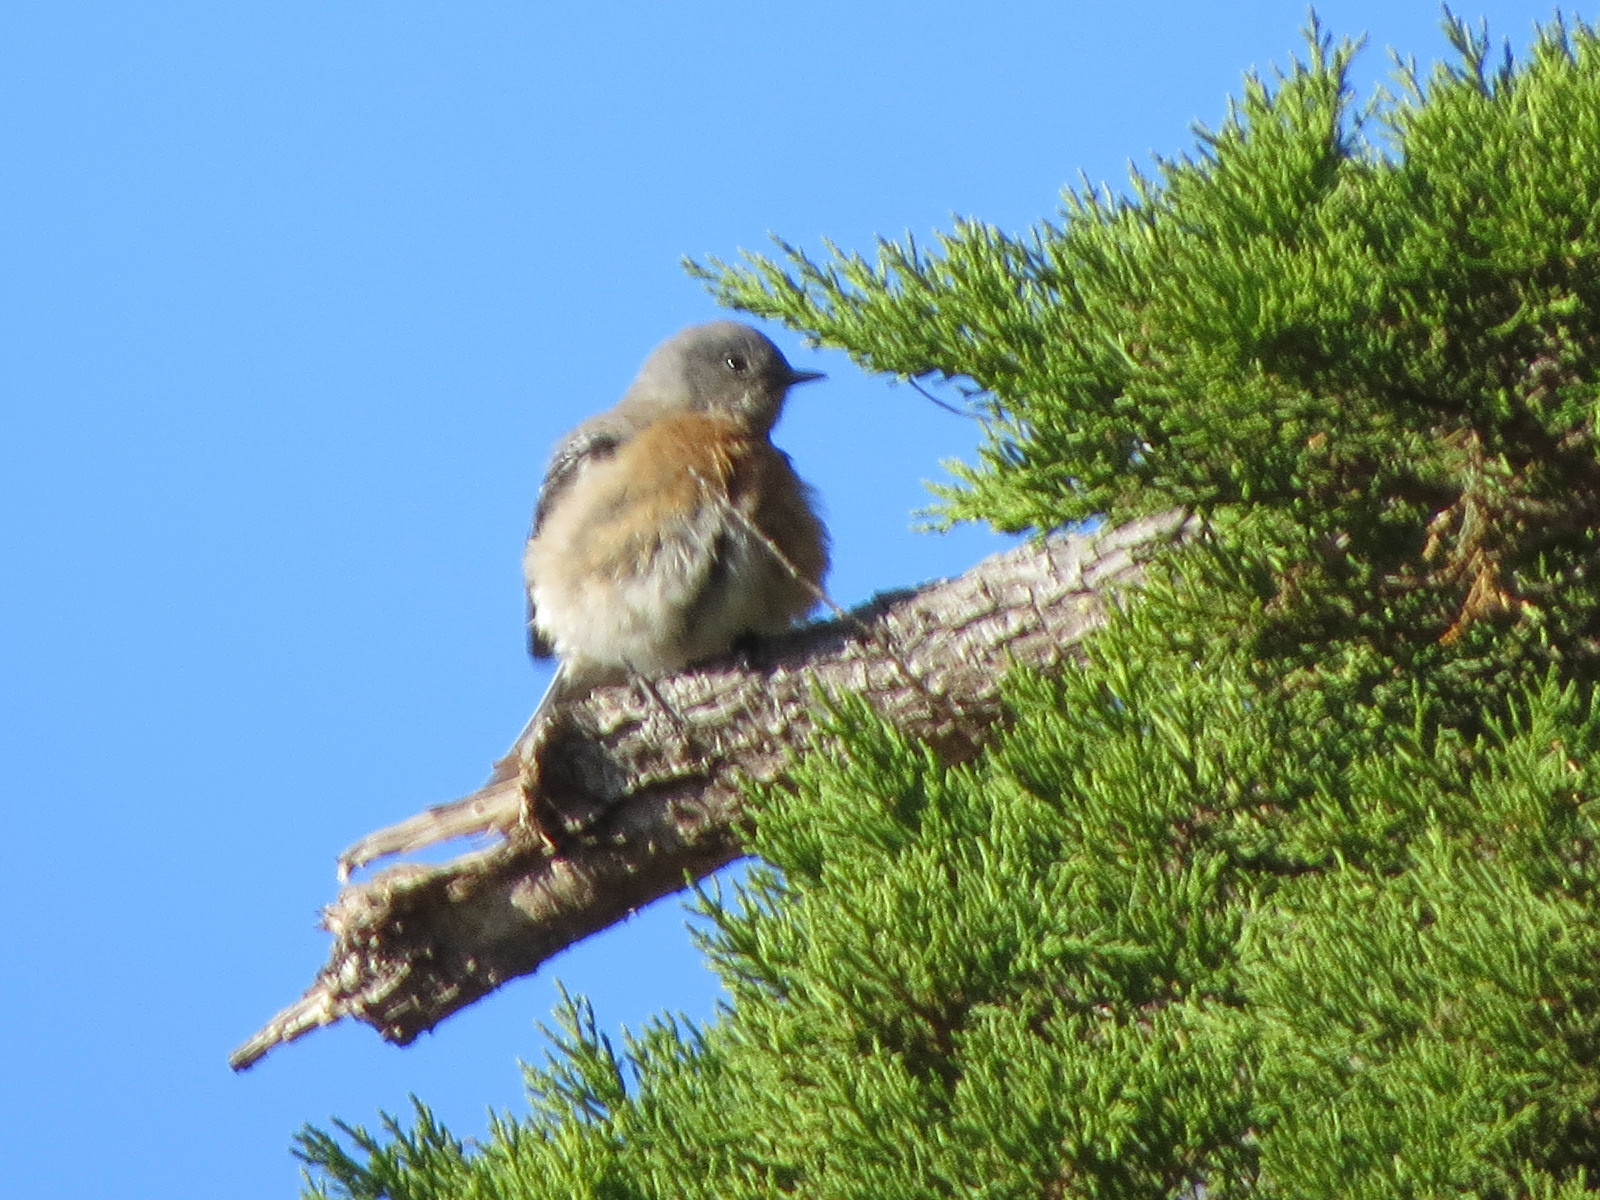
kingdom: Animalia
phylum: Chordata
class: Aves
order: Passeriformes
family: Turdidae
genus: Sialia
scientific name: Sialia mexicana
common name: Western bluebird
